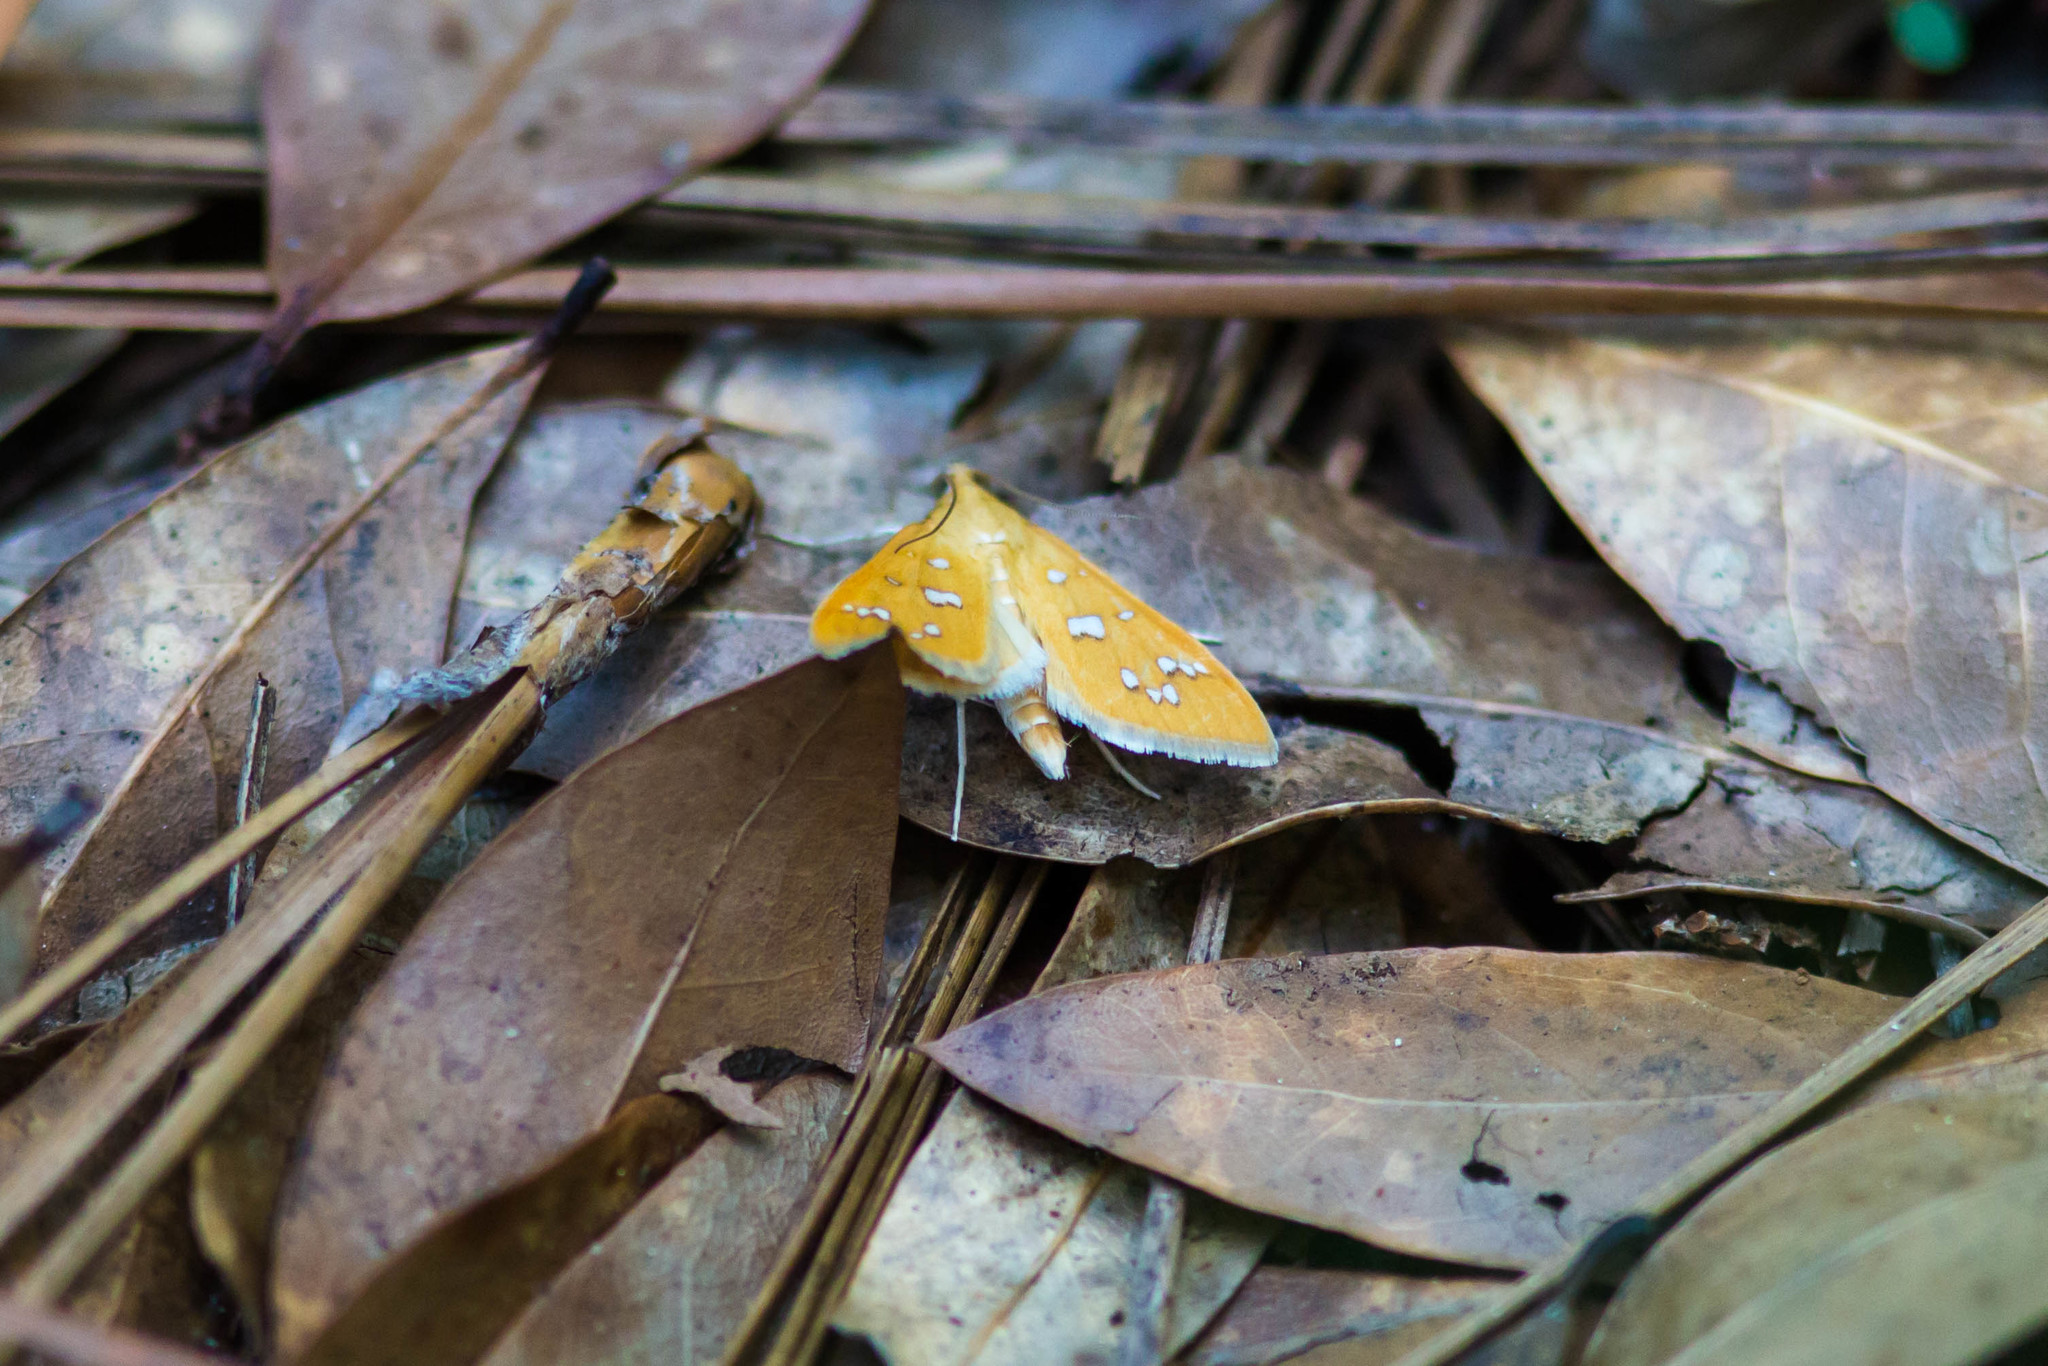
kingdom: Animalia
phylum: Arthropoda
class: Insecta
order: Lepidoptera
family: Crambidae
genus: Samea
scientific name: Samea baccatalis
